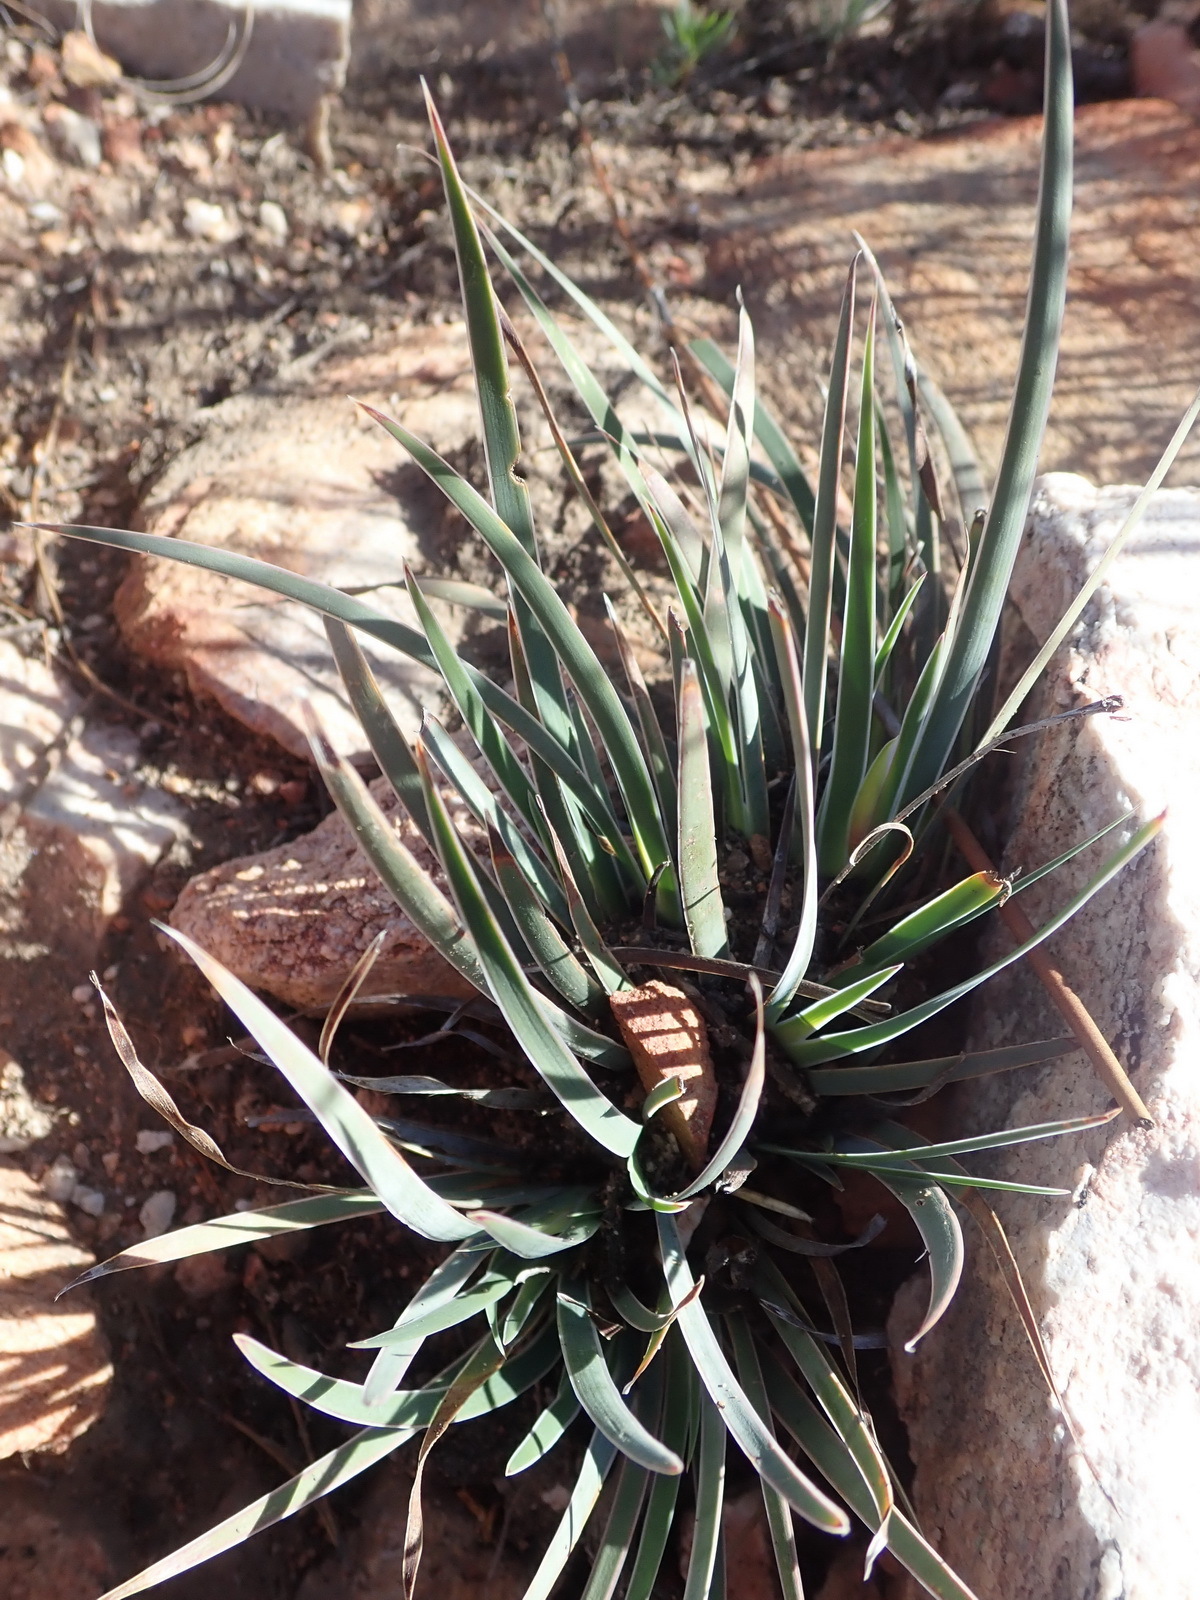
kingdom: Plantae
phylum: Tracheophyta
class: Liliopsida
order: Asparagales
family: Iridaceae
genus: Aristea
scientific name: Aristea nana
